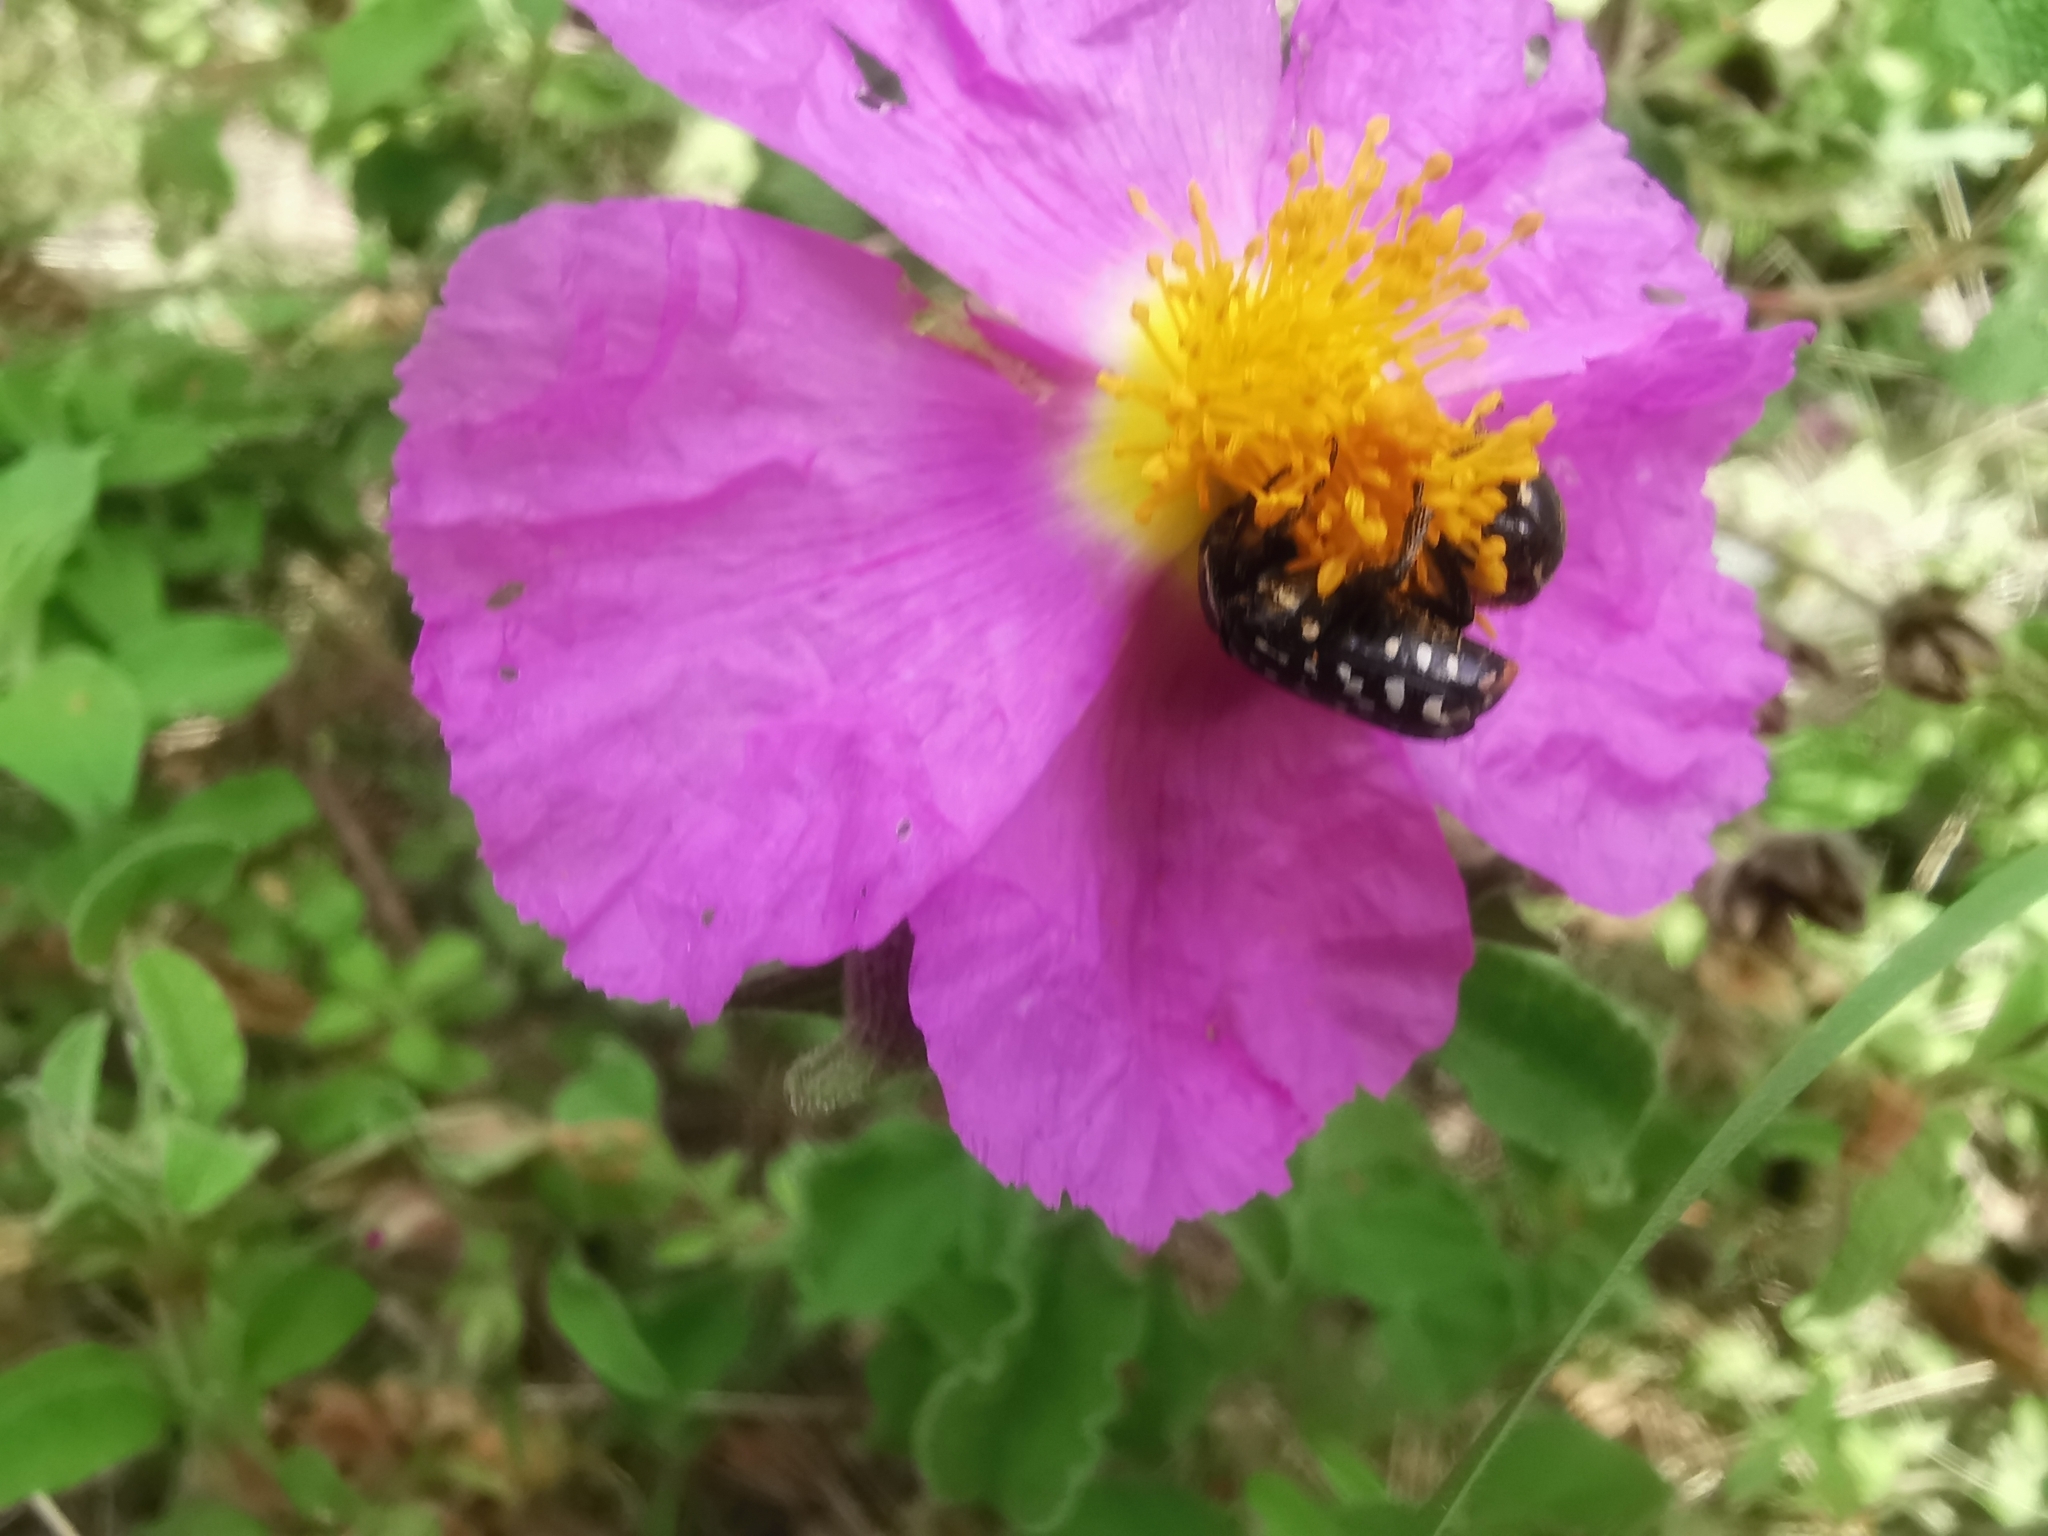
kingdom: Animalia
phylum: Arthropoda
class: Insecta
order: Coleoptera
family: Scarabaeidae
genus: Oxythyrea
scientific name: Oxythyrea funesta
